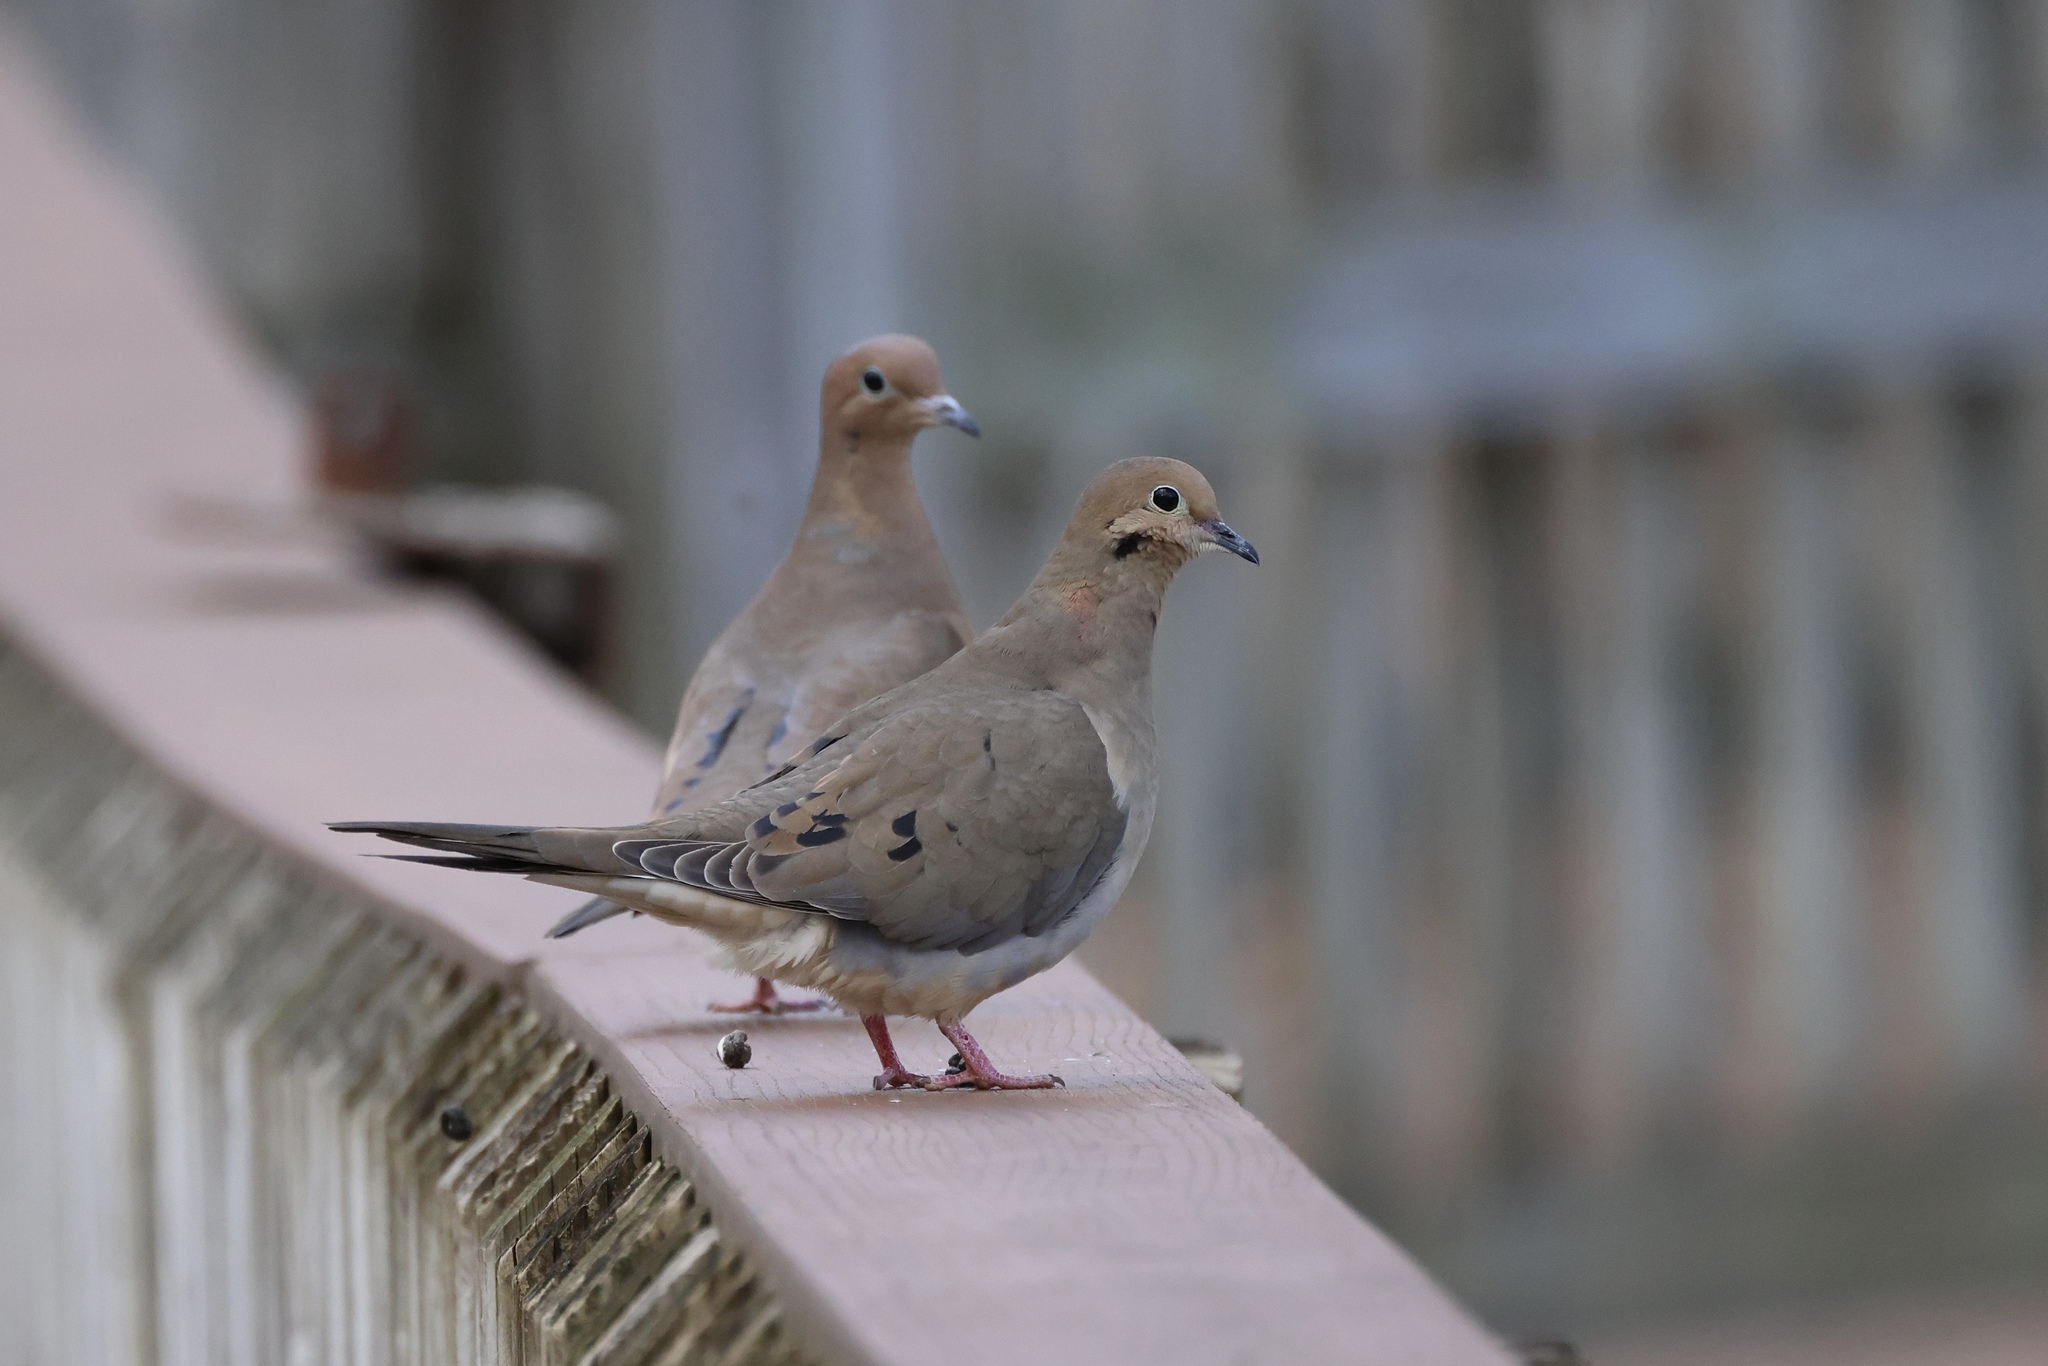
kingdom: Animalia
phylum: Chordata
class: Aves
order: Columbiformes
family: Columbidae
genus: Zenaida
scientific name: Zenaida macroura
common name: Mourning dove
